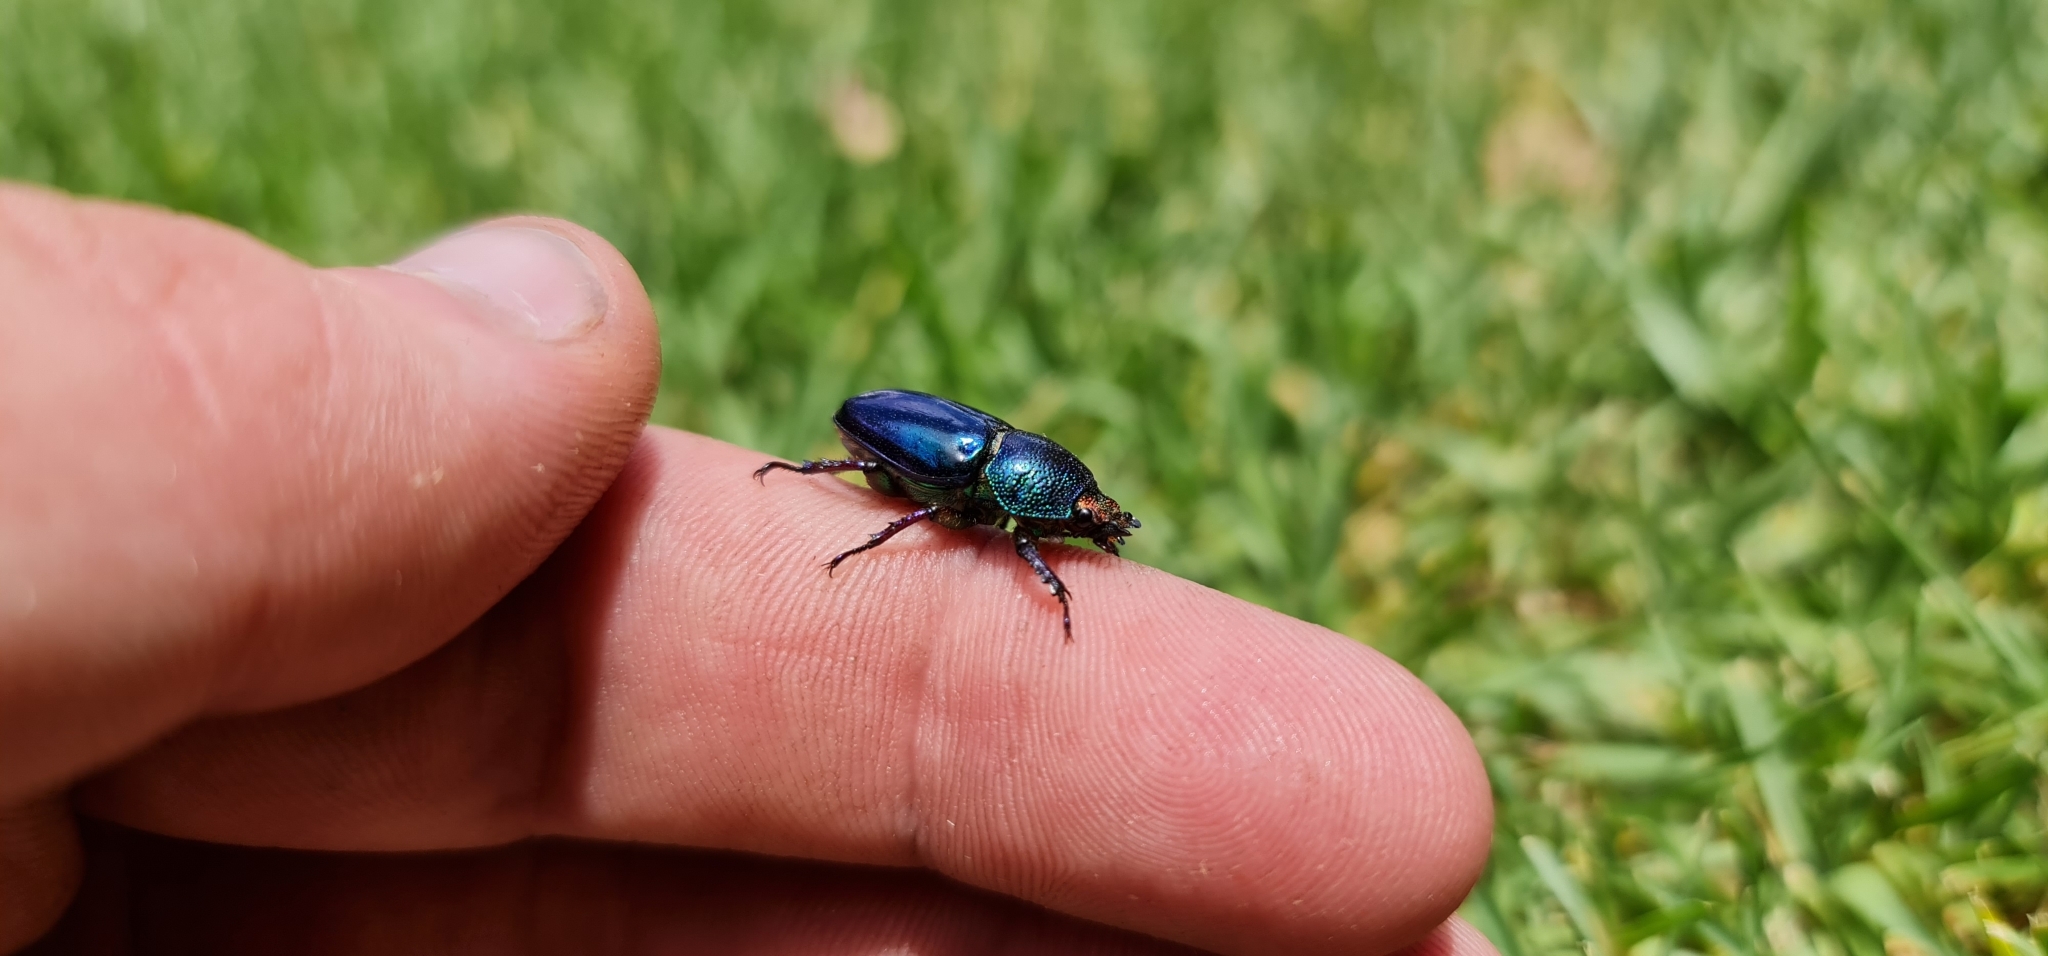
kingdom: Animalia
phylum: Arthropoda
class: Insecta
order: Coleoptera
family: Lucanidae
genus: Lamprima
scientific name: Lamprima aurata
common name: Golden stag beetle
